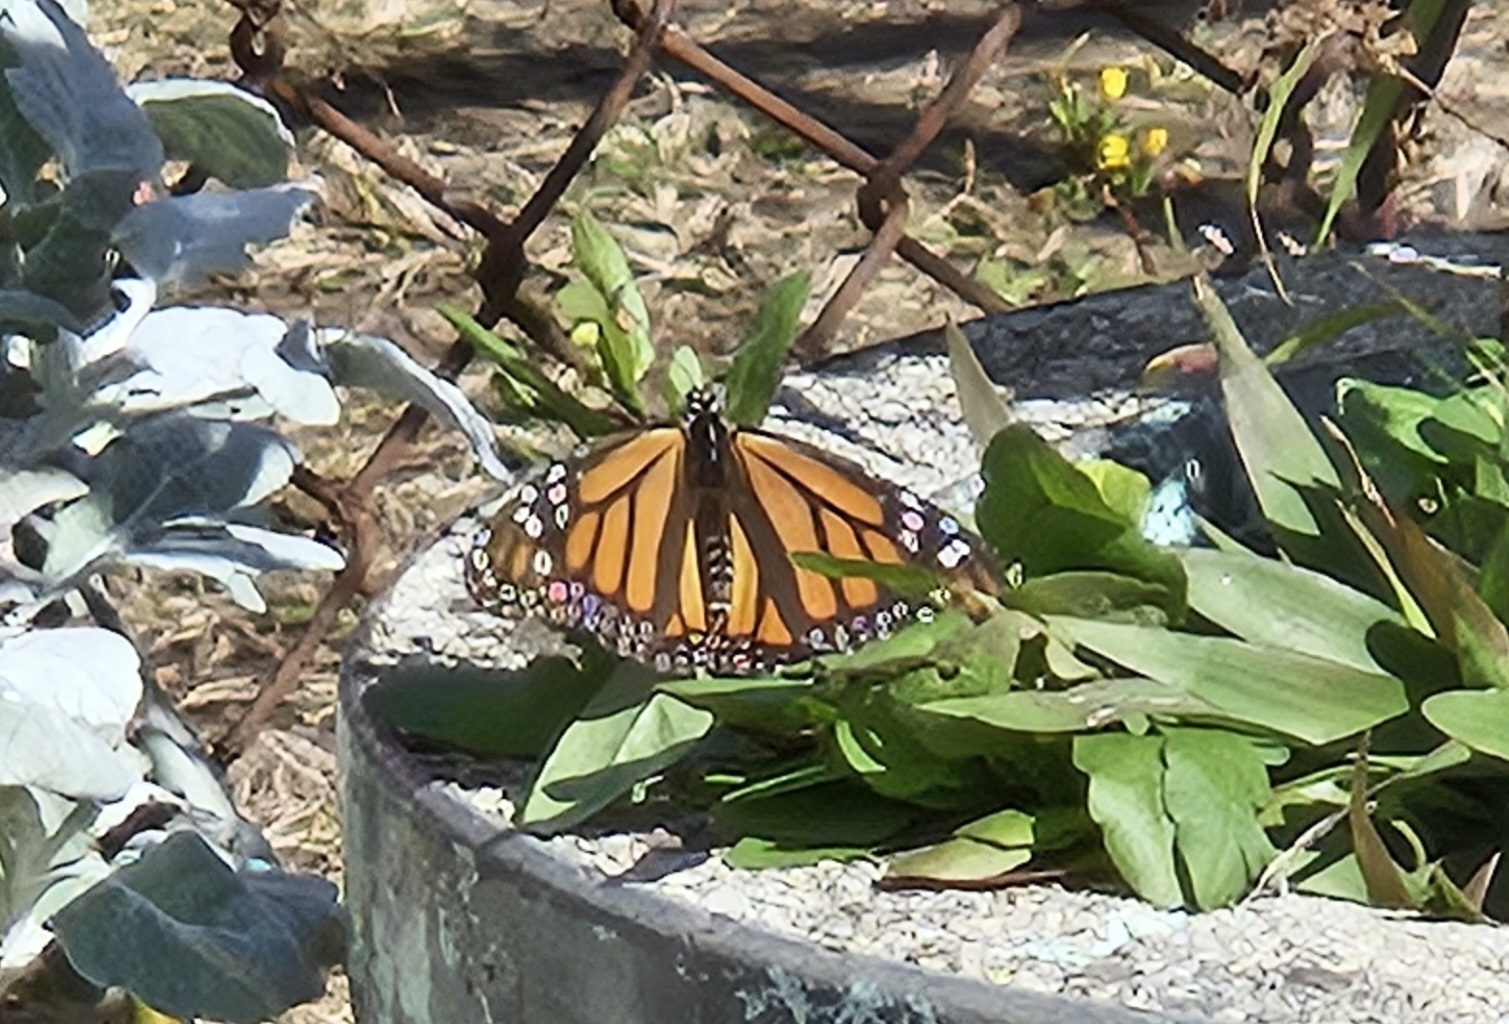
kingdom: Animalia
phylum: Arthropoda
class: Insecta
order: Lepidoptera
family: Nymphalidae
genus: Danaus
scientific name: Danaus plexippus
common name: Monarch
